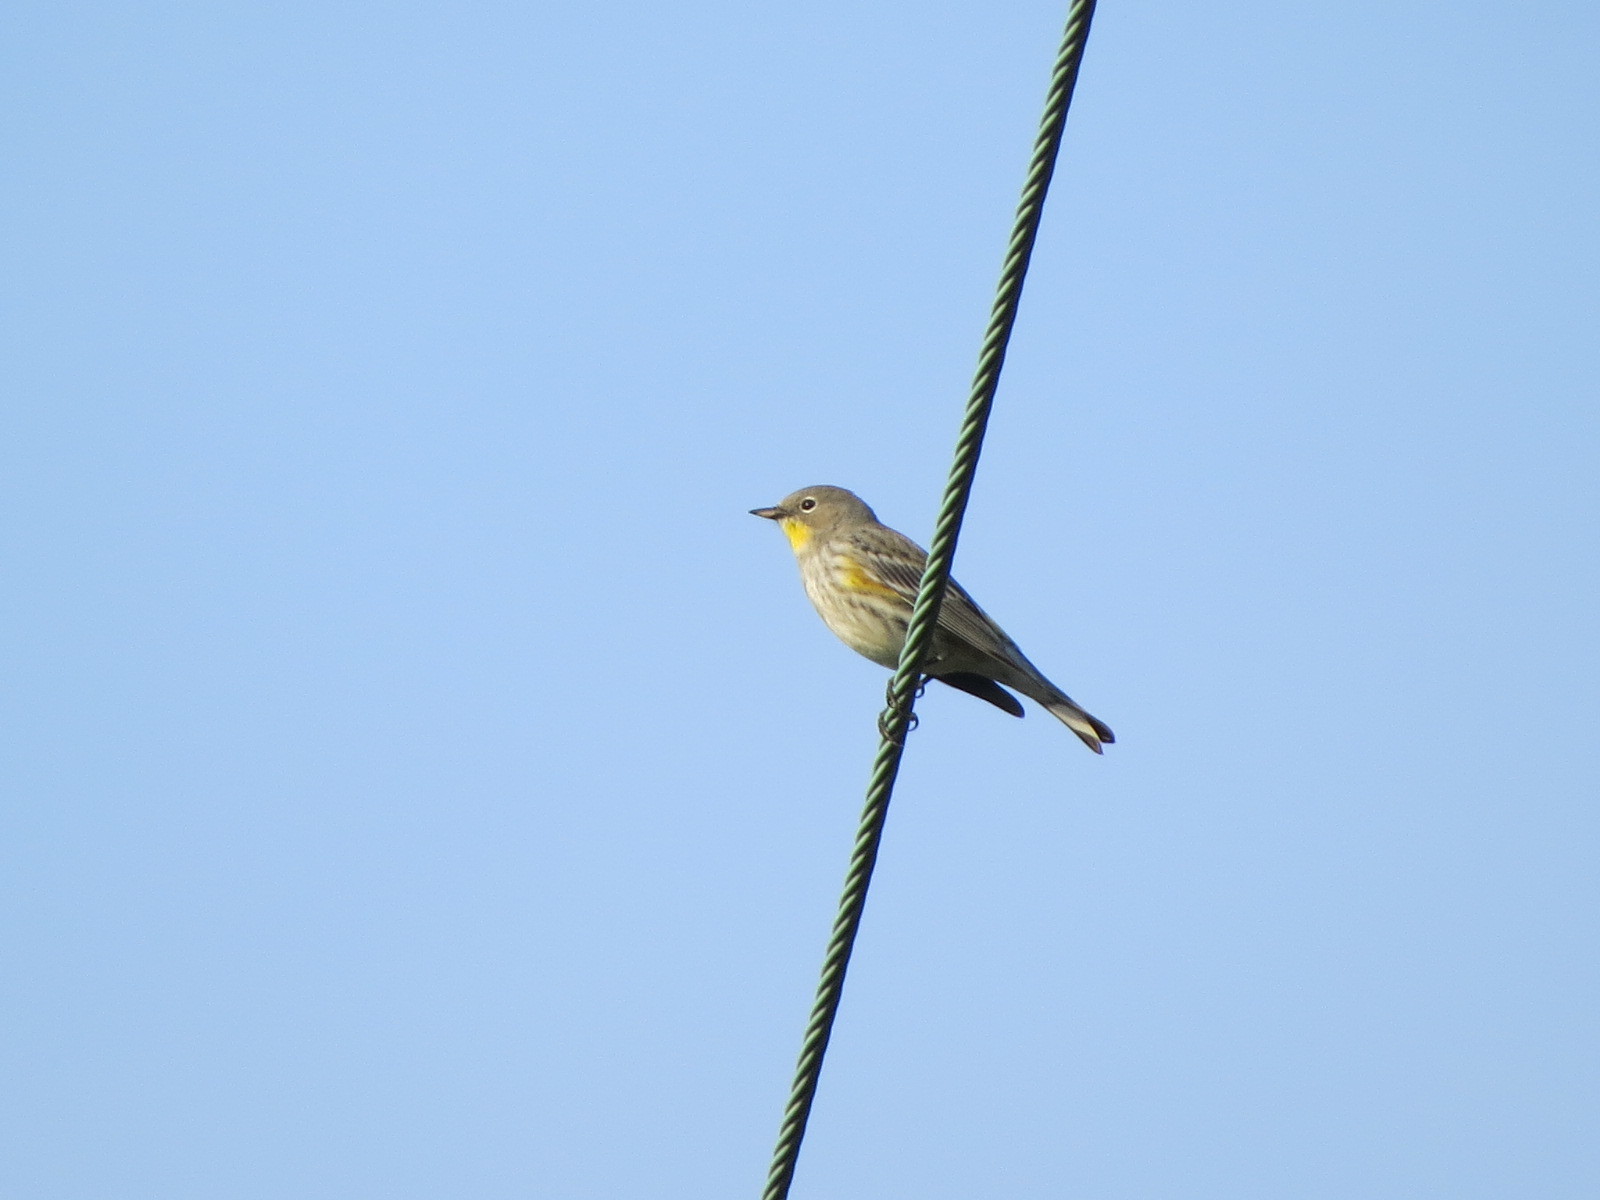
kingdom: Animalia
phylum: Chordata
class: Aves
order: Passeriformes
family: Parulidae
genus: Setophaga
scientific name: Setophaga coronata
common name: Myrtle warbler
